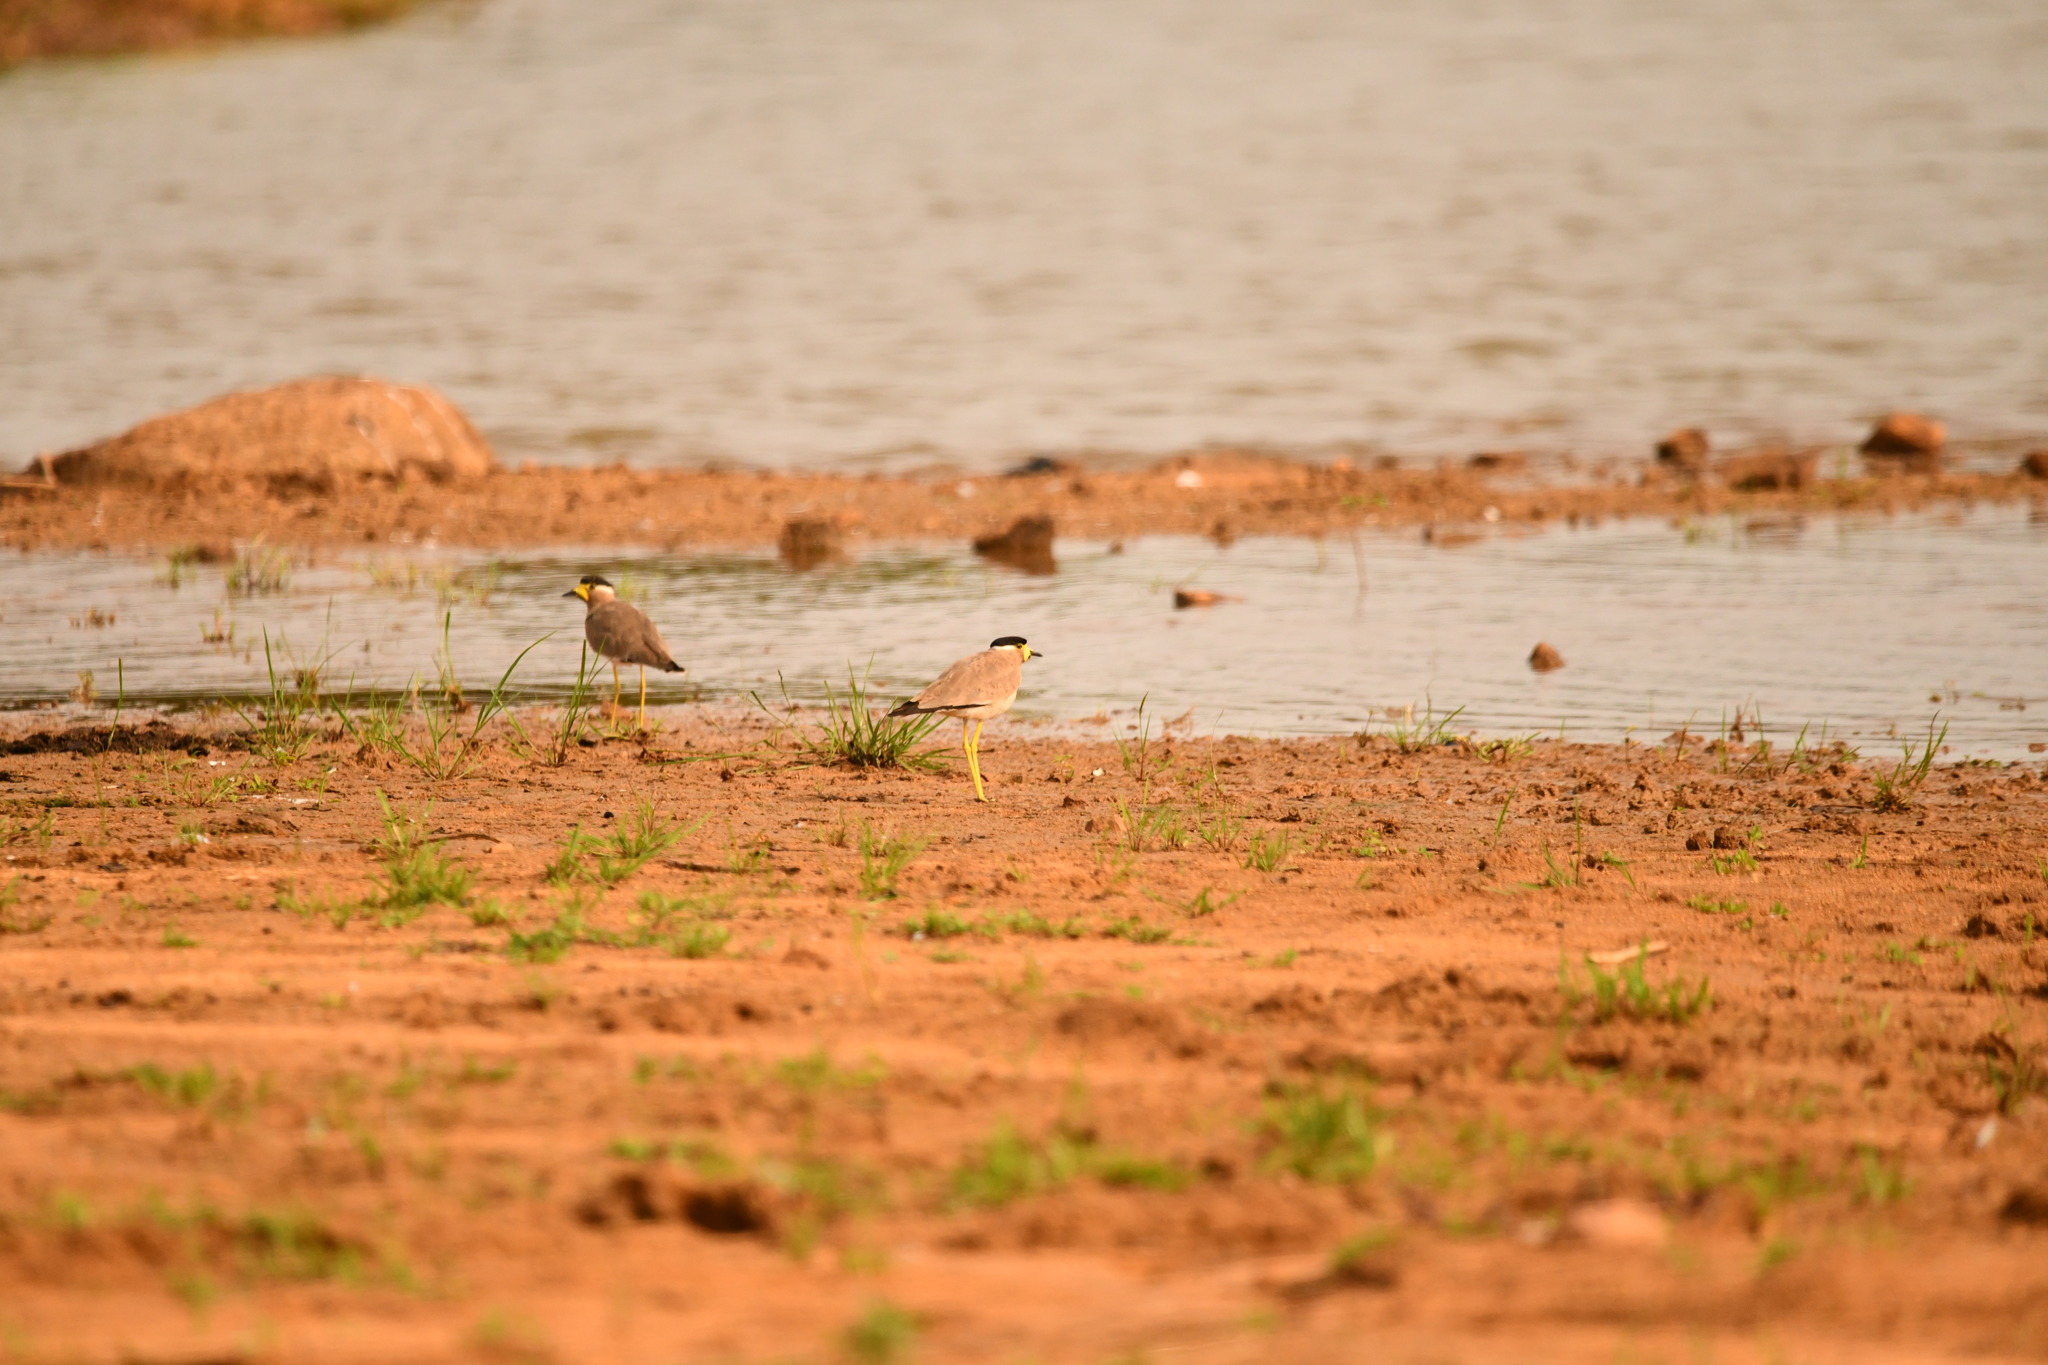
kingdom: Animalia
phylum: Chordata
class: Aves
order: Charadriiformes
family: Charadriidae
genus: Vanellus
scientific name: Vanellus malabaricus
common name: Yellow-wattled lapwing
